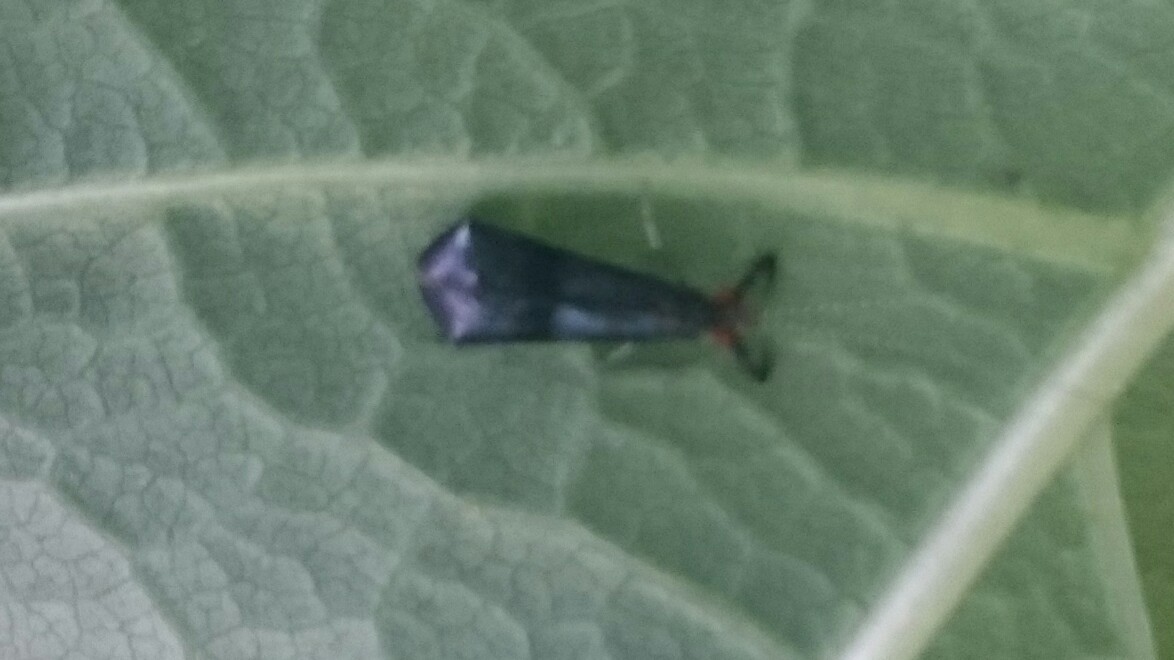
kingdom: Animalia
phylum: Arthropoda
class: Insecta
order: Trichoptera
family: Leptoceridae
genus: Mystacides
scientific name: Mystacides azureus
